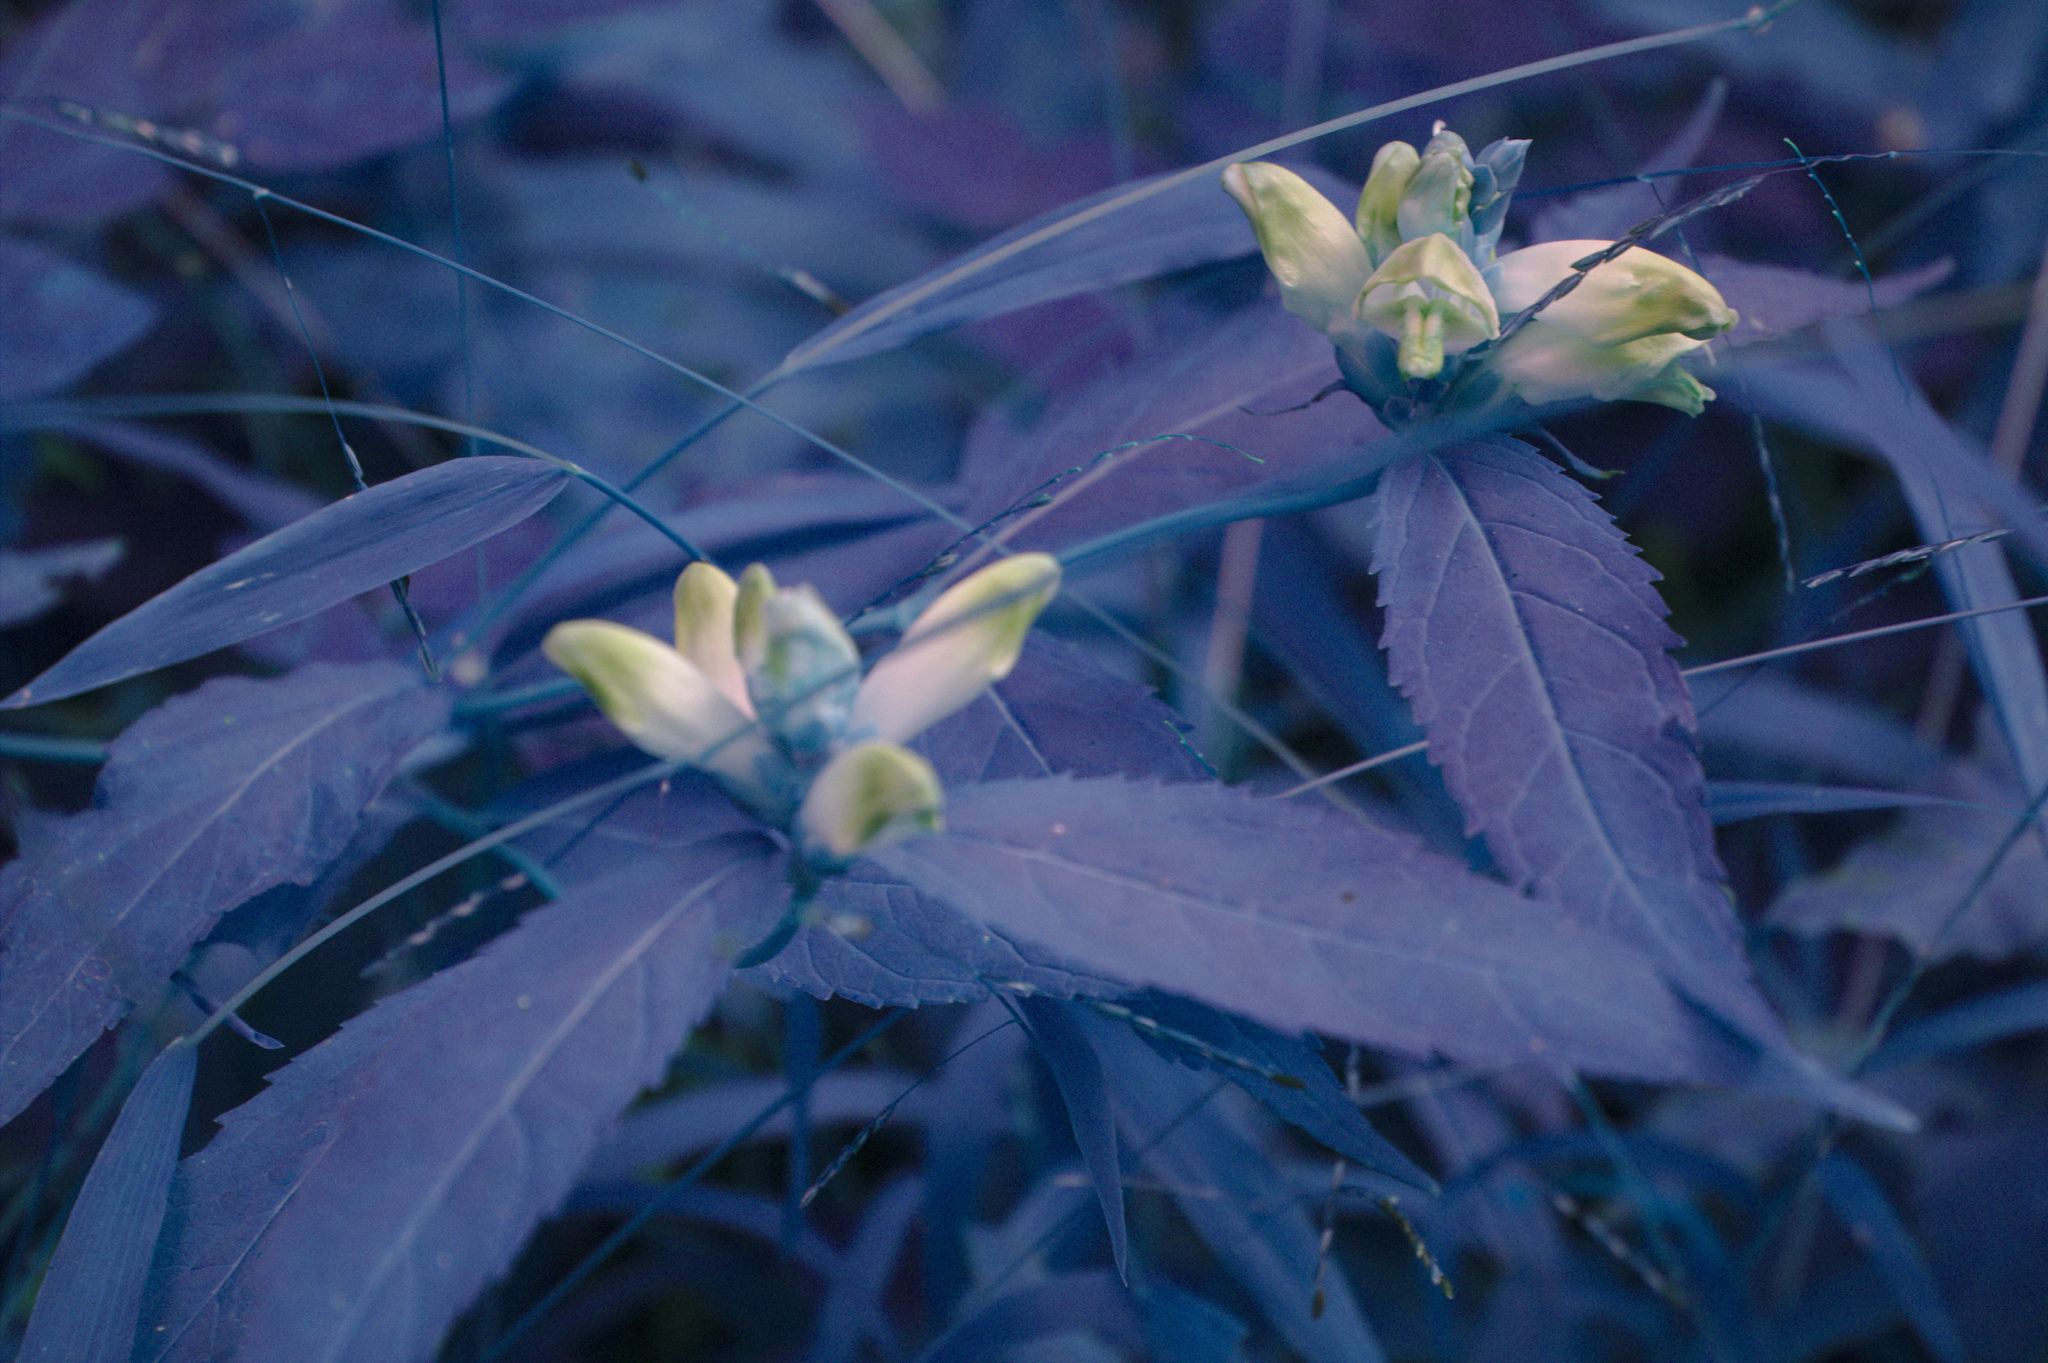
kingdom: Plantae
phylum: Tracheophyta
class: Magnoliopsida
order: Lamiales
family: Plantaginaceae
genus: Chelone
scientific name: Chelone glabra
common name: Snakehead
